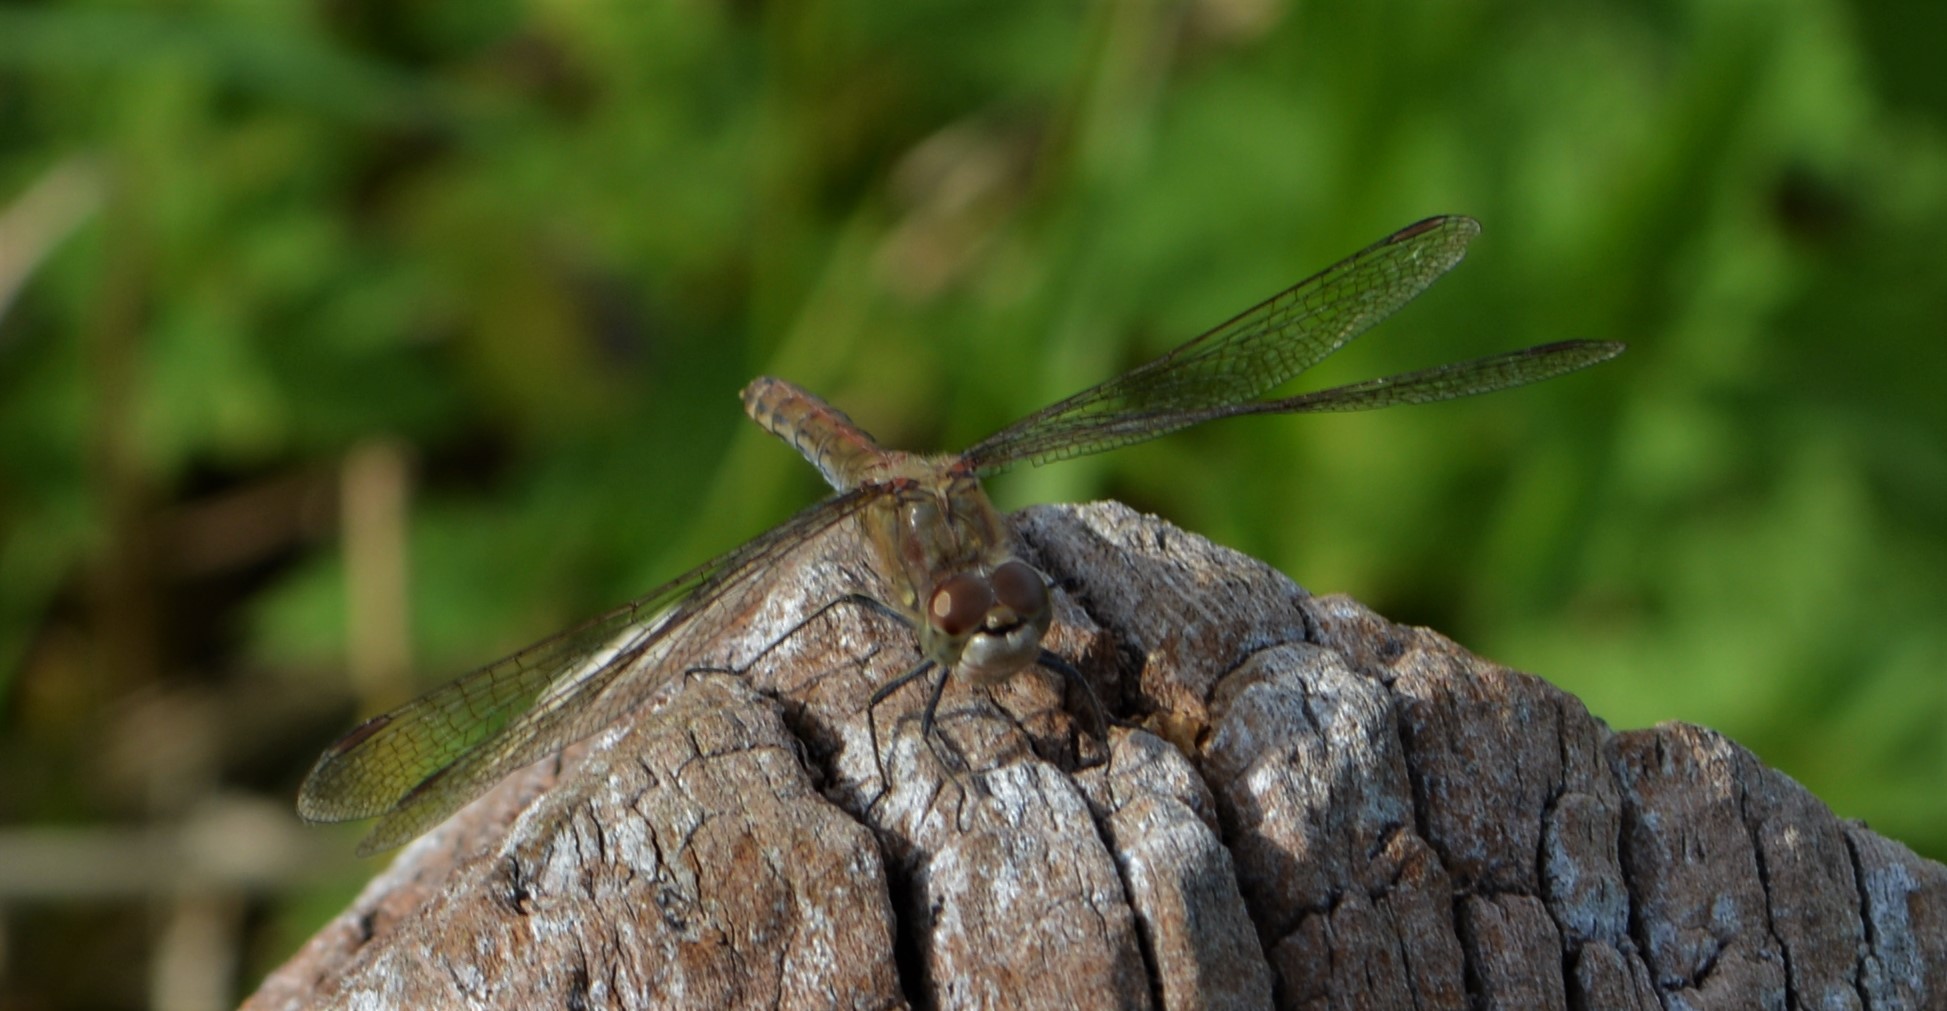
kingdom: Animalia
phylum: Arthropoda
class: Insecta
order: Odonata
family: Libellulidae
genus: Sympetrum
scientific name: Sympetrum striolatum
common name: Common darter
